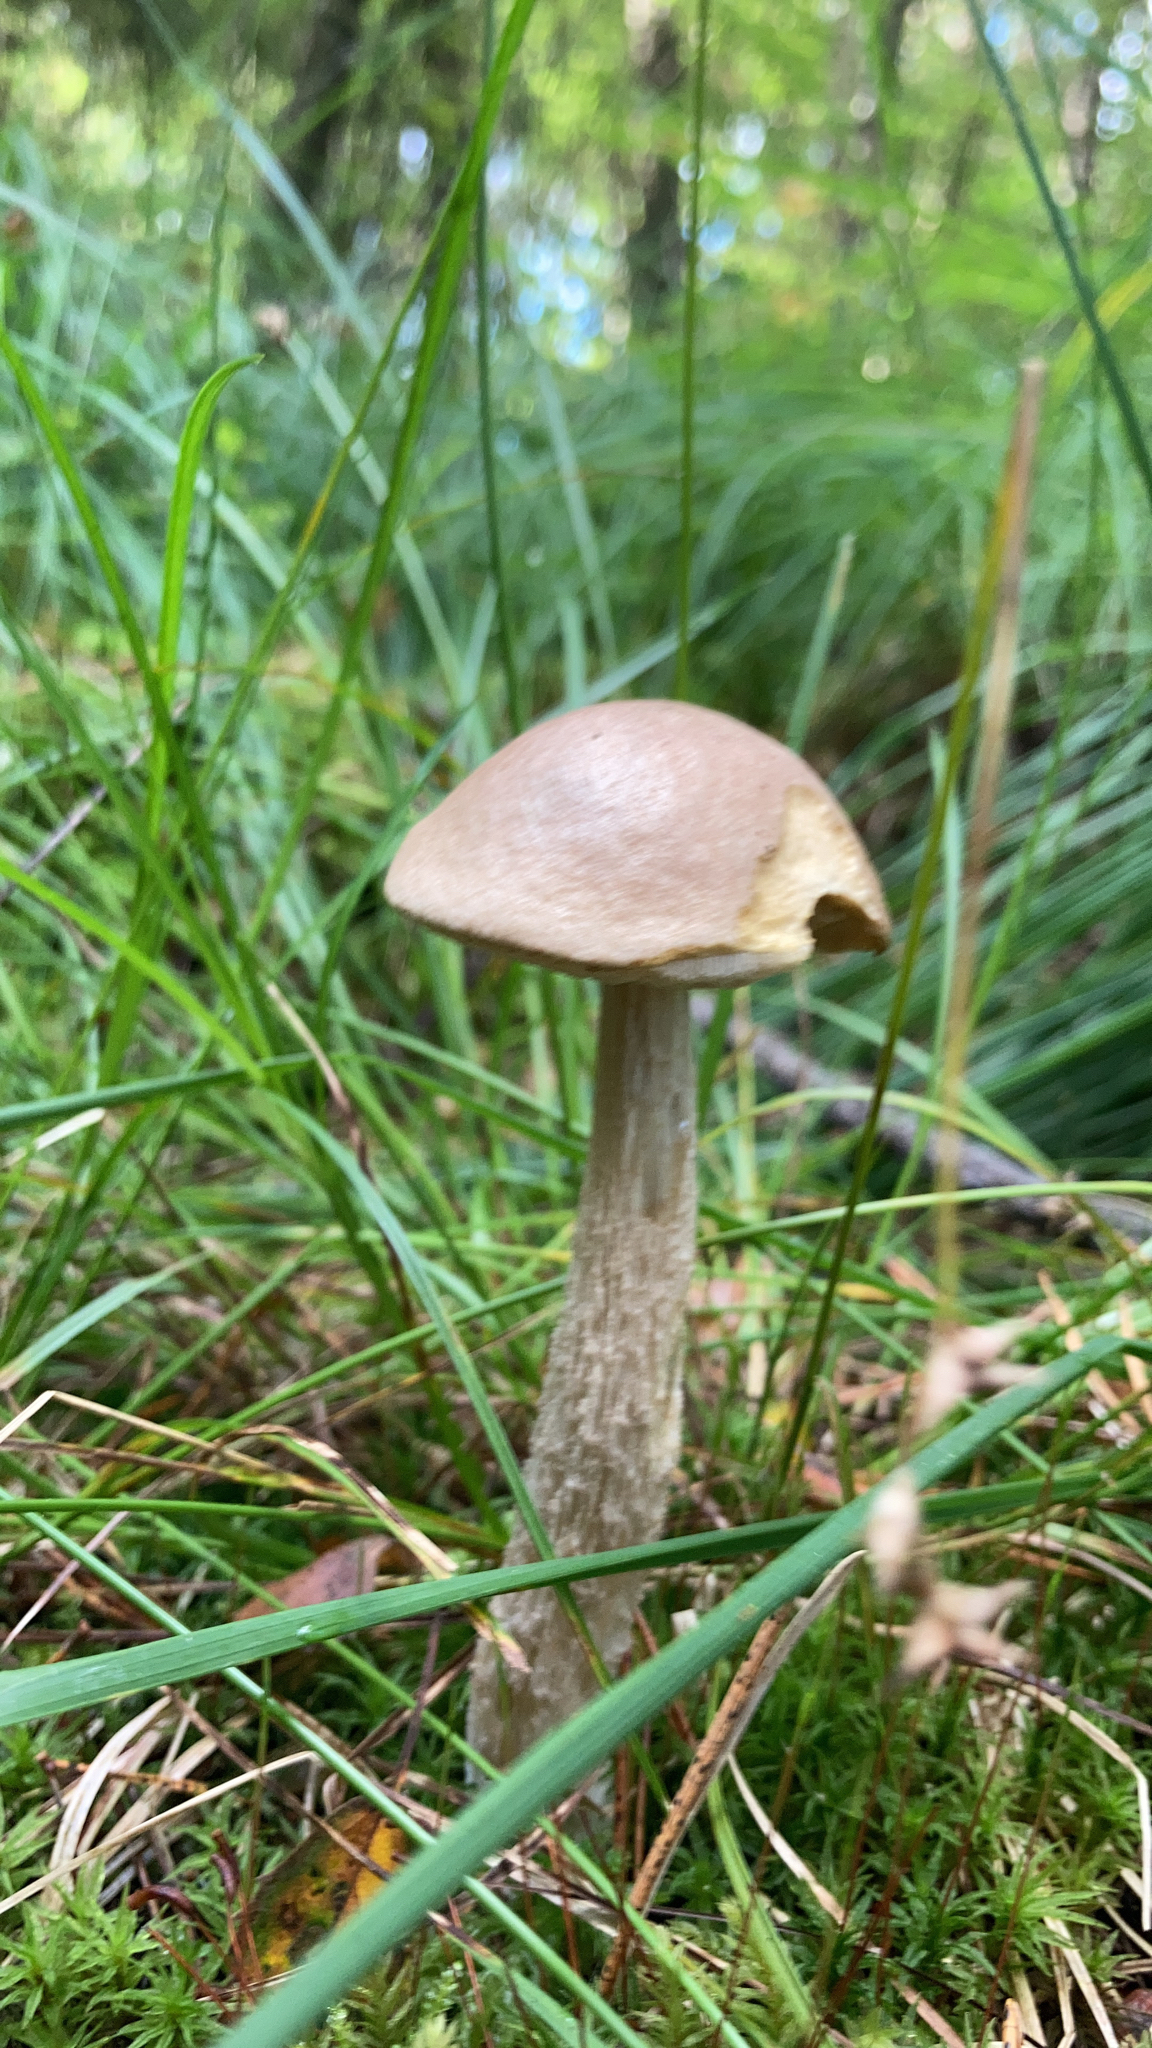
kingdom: Fungi
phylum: Basidiomycota
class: Agaricomycetes
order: Boletales
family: Boletaceae
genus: Leccinum
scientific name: Leccinum scabrum
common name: Blushing bolete
